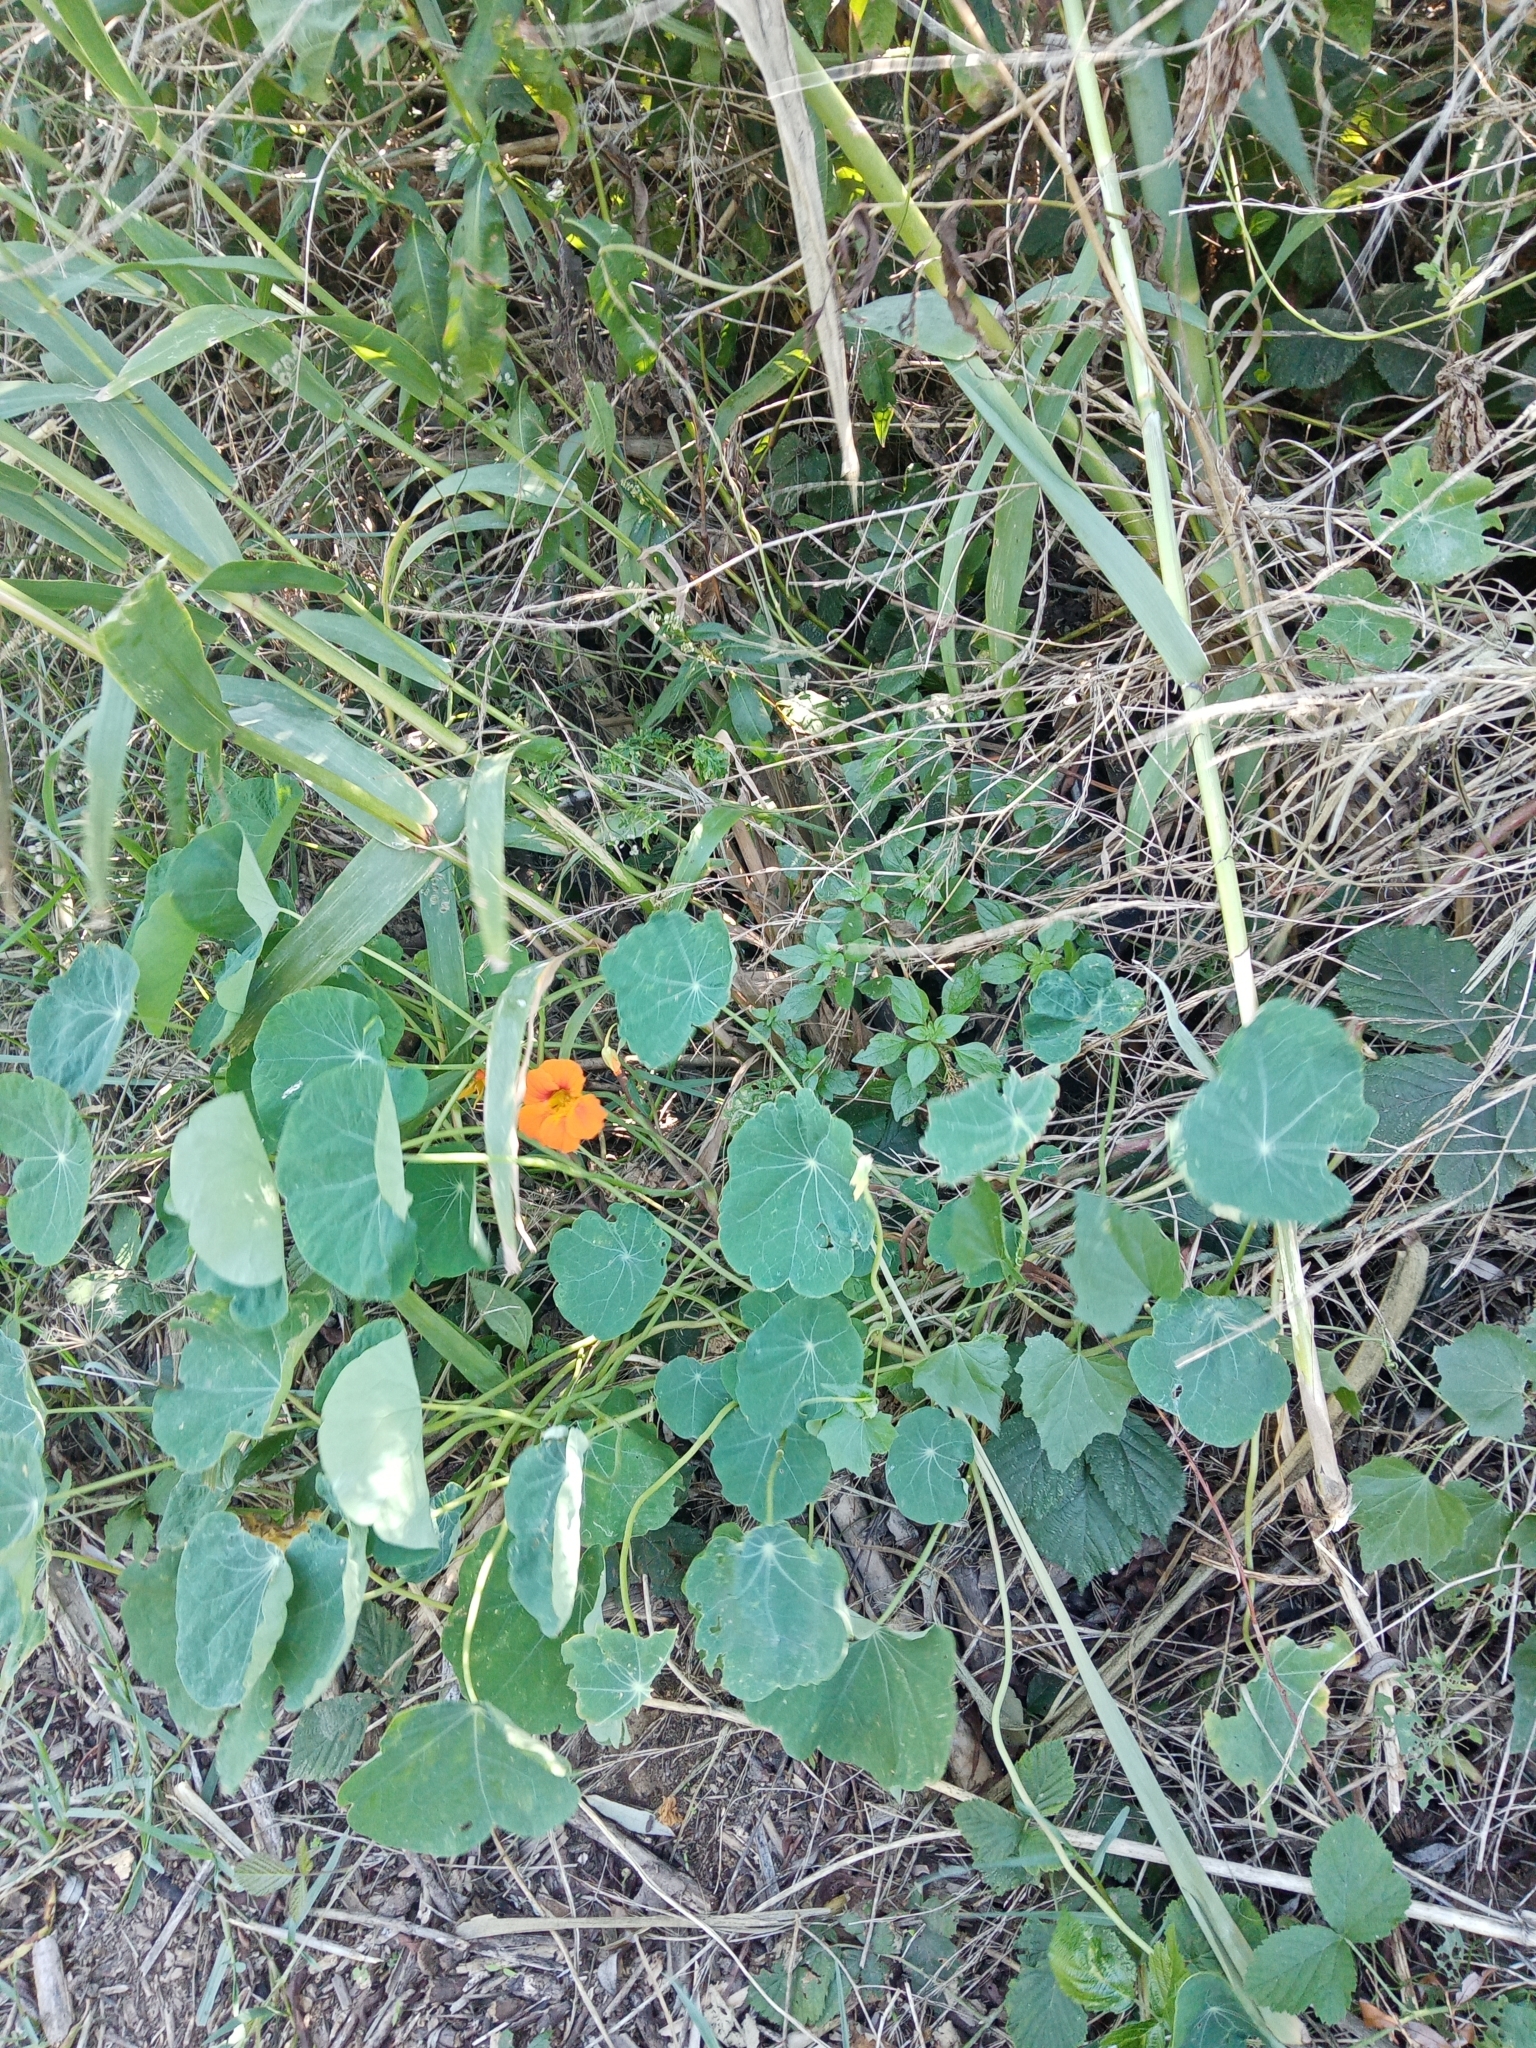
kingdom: Plantae
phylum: Tracheophyta
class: Magnoliopsida
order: Brassicales
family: Tropaeolaceae
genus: Tropaeolum
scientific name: Tropaeolum majus
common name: Nasturtium
